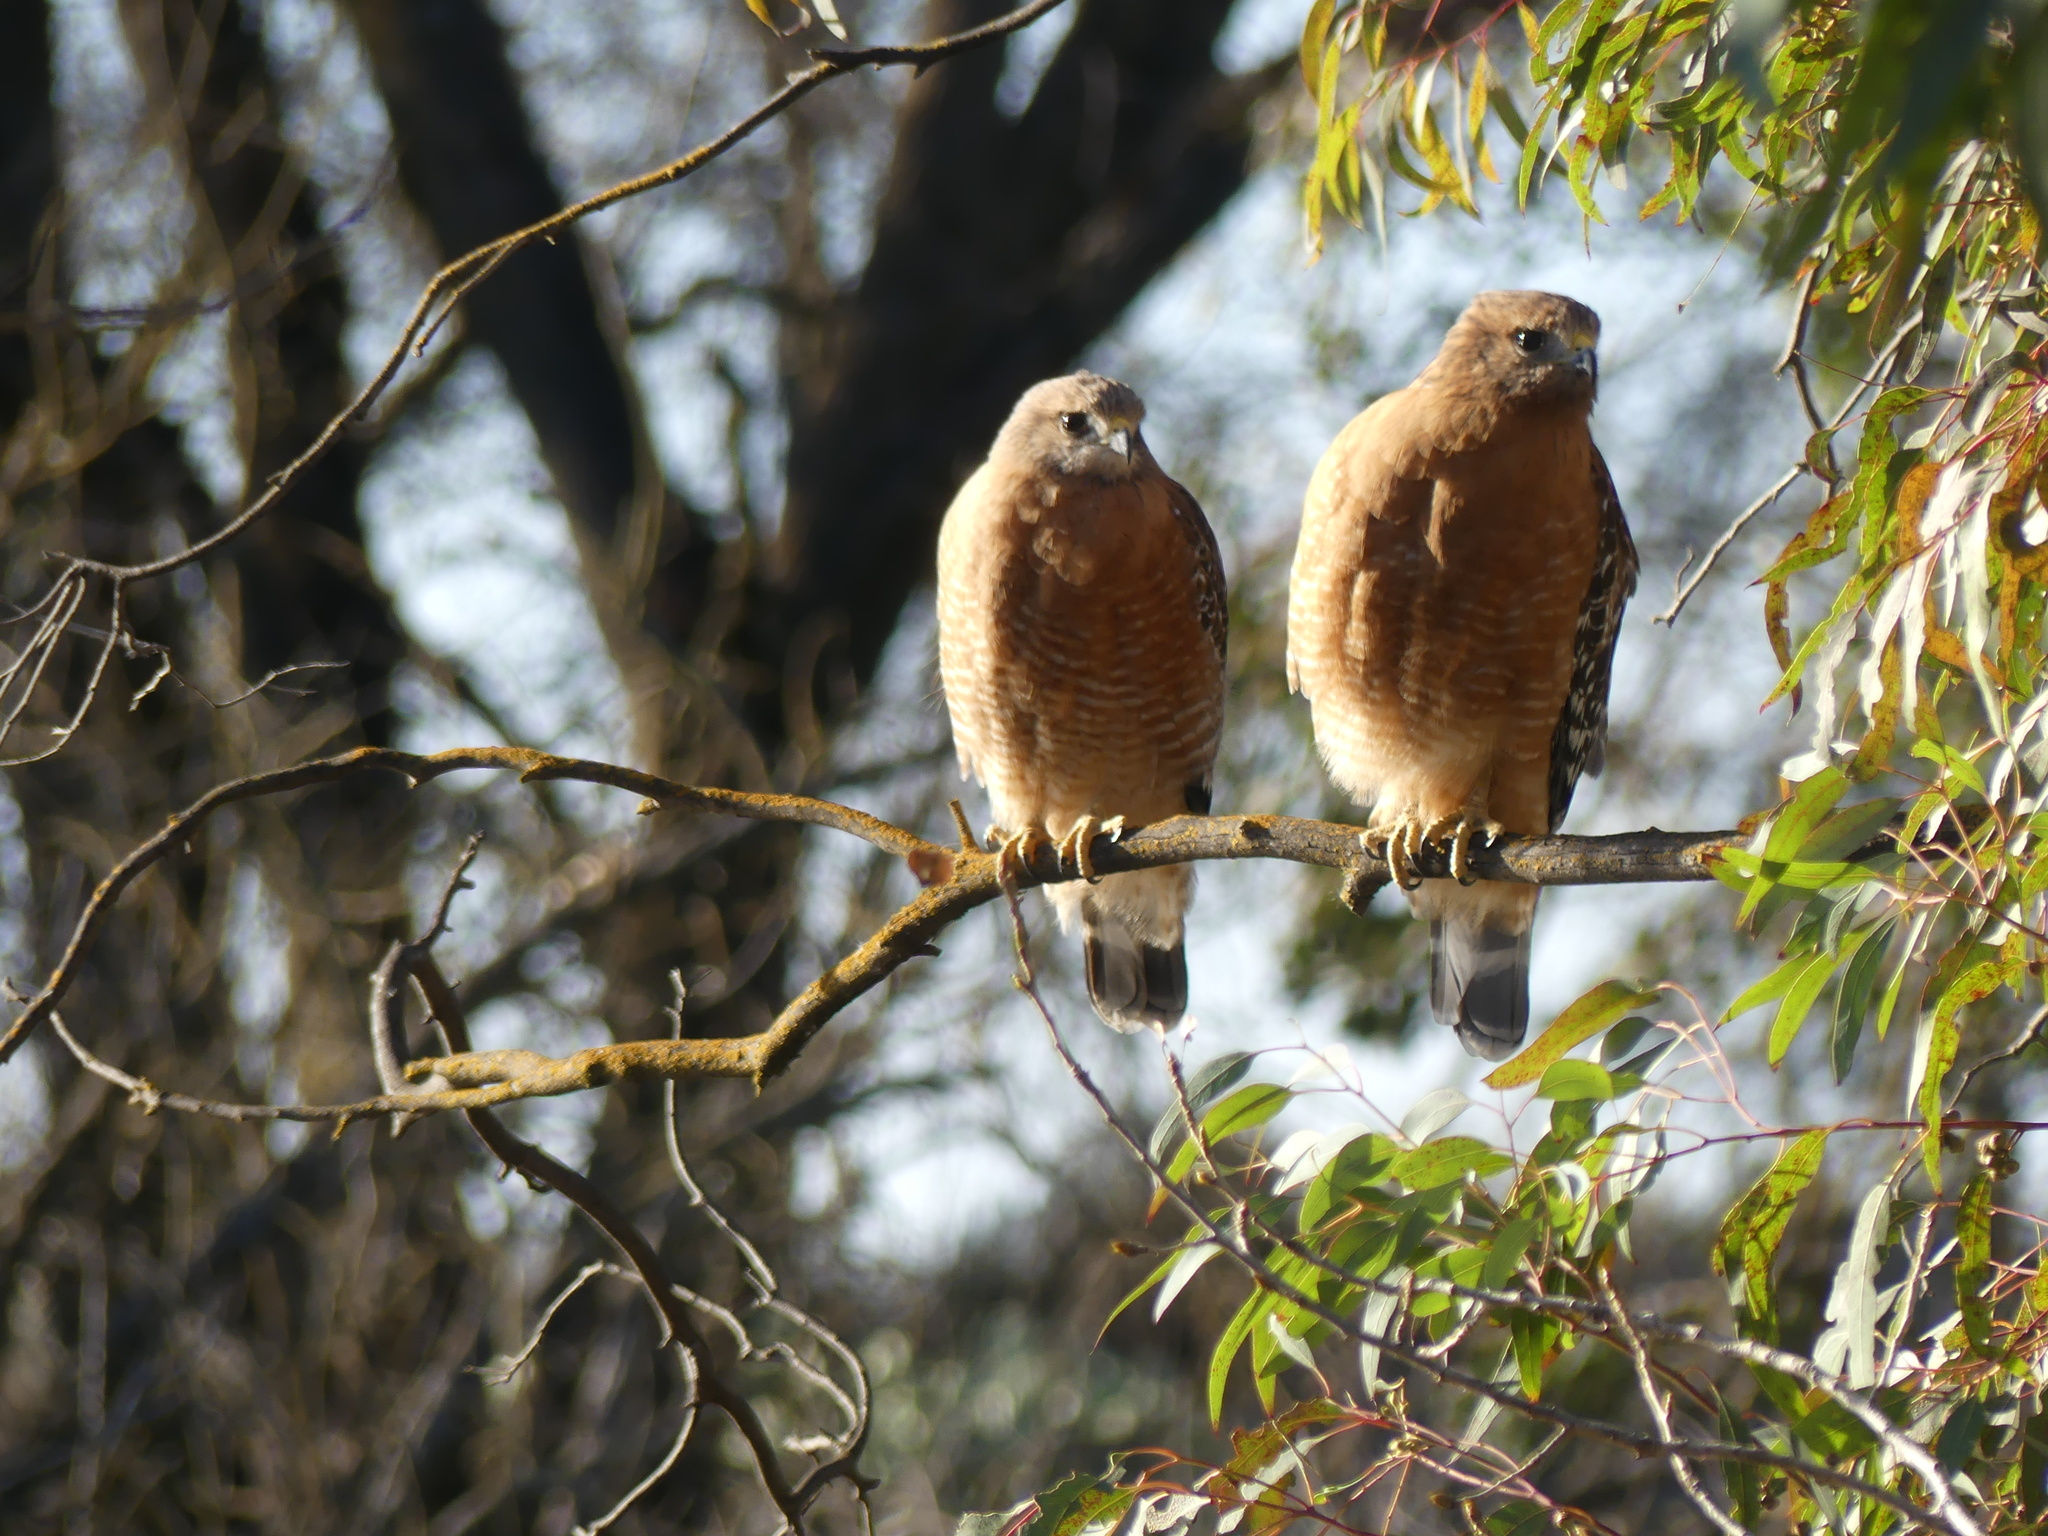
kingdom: Animalia
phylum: Chordata
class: Aves
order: Accipitriformes
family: Accipitridae
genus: Buteo
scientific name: Buteo lineatus
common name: Red-shouldered hawk
